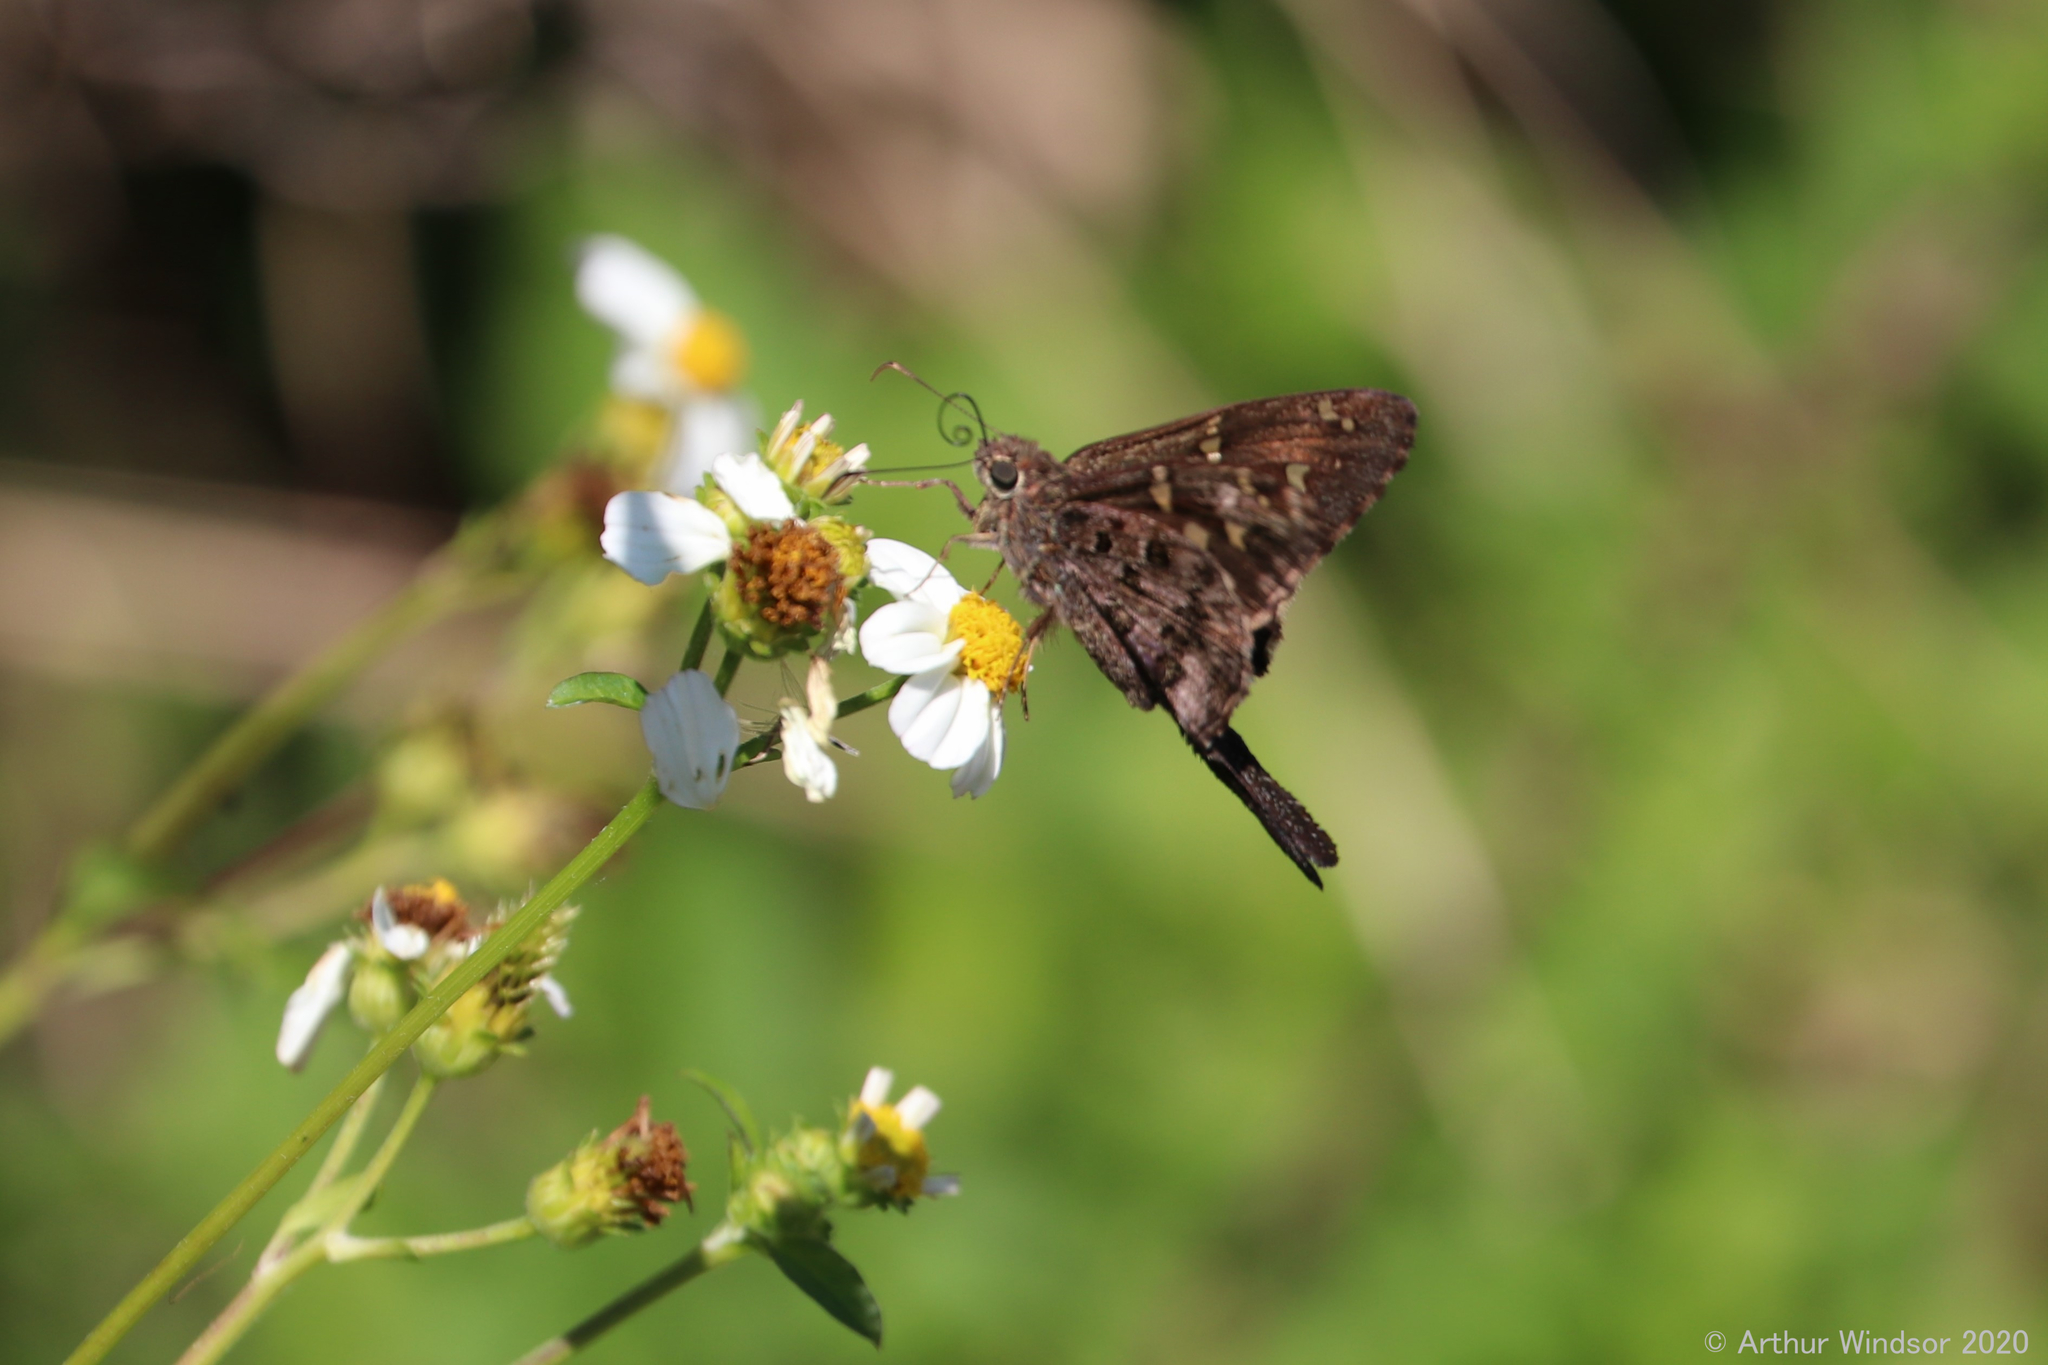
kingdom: Animalia
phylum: Arthropoda
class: Insecta
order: Lepidoptera
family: Hesperiidae
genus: Thorybes
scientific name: Thorybes
